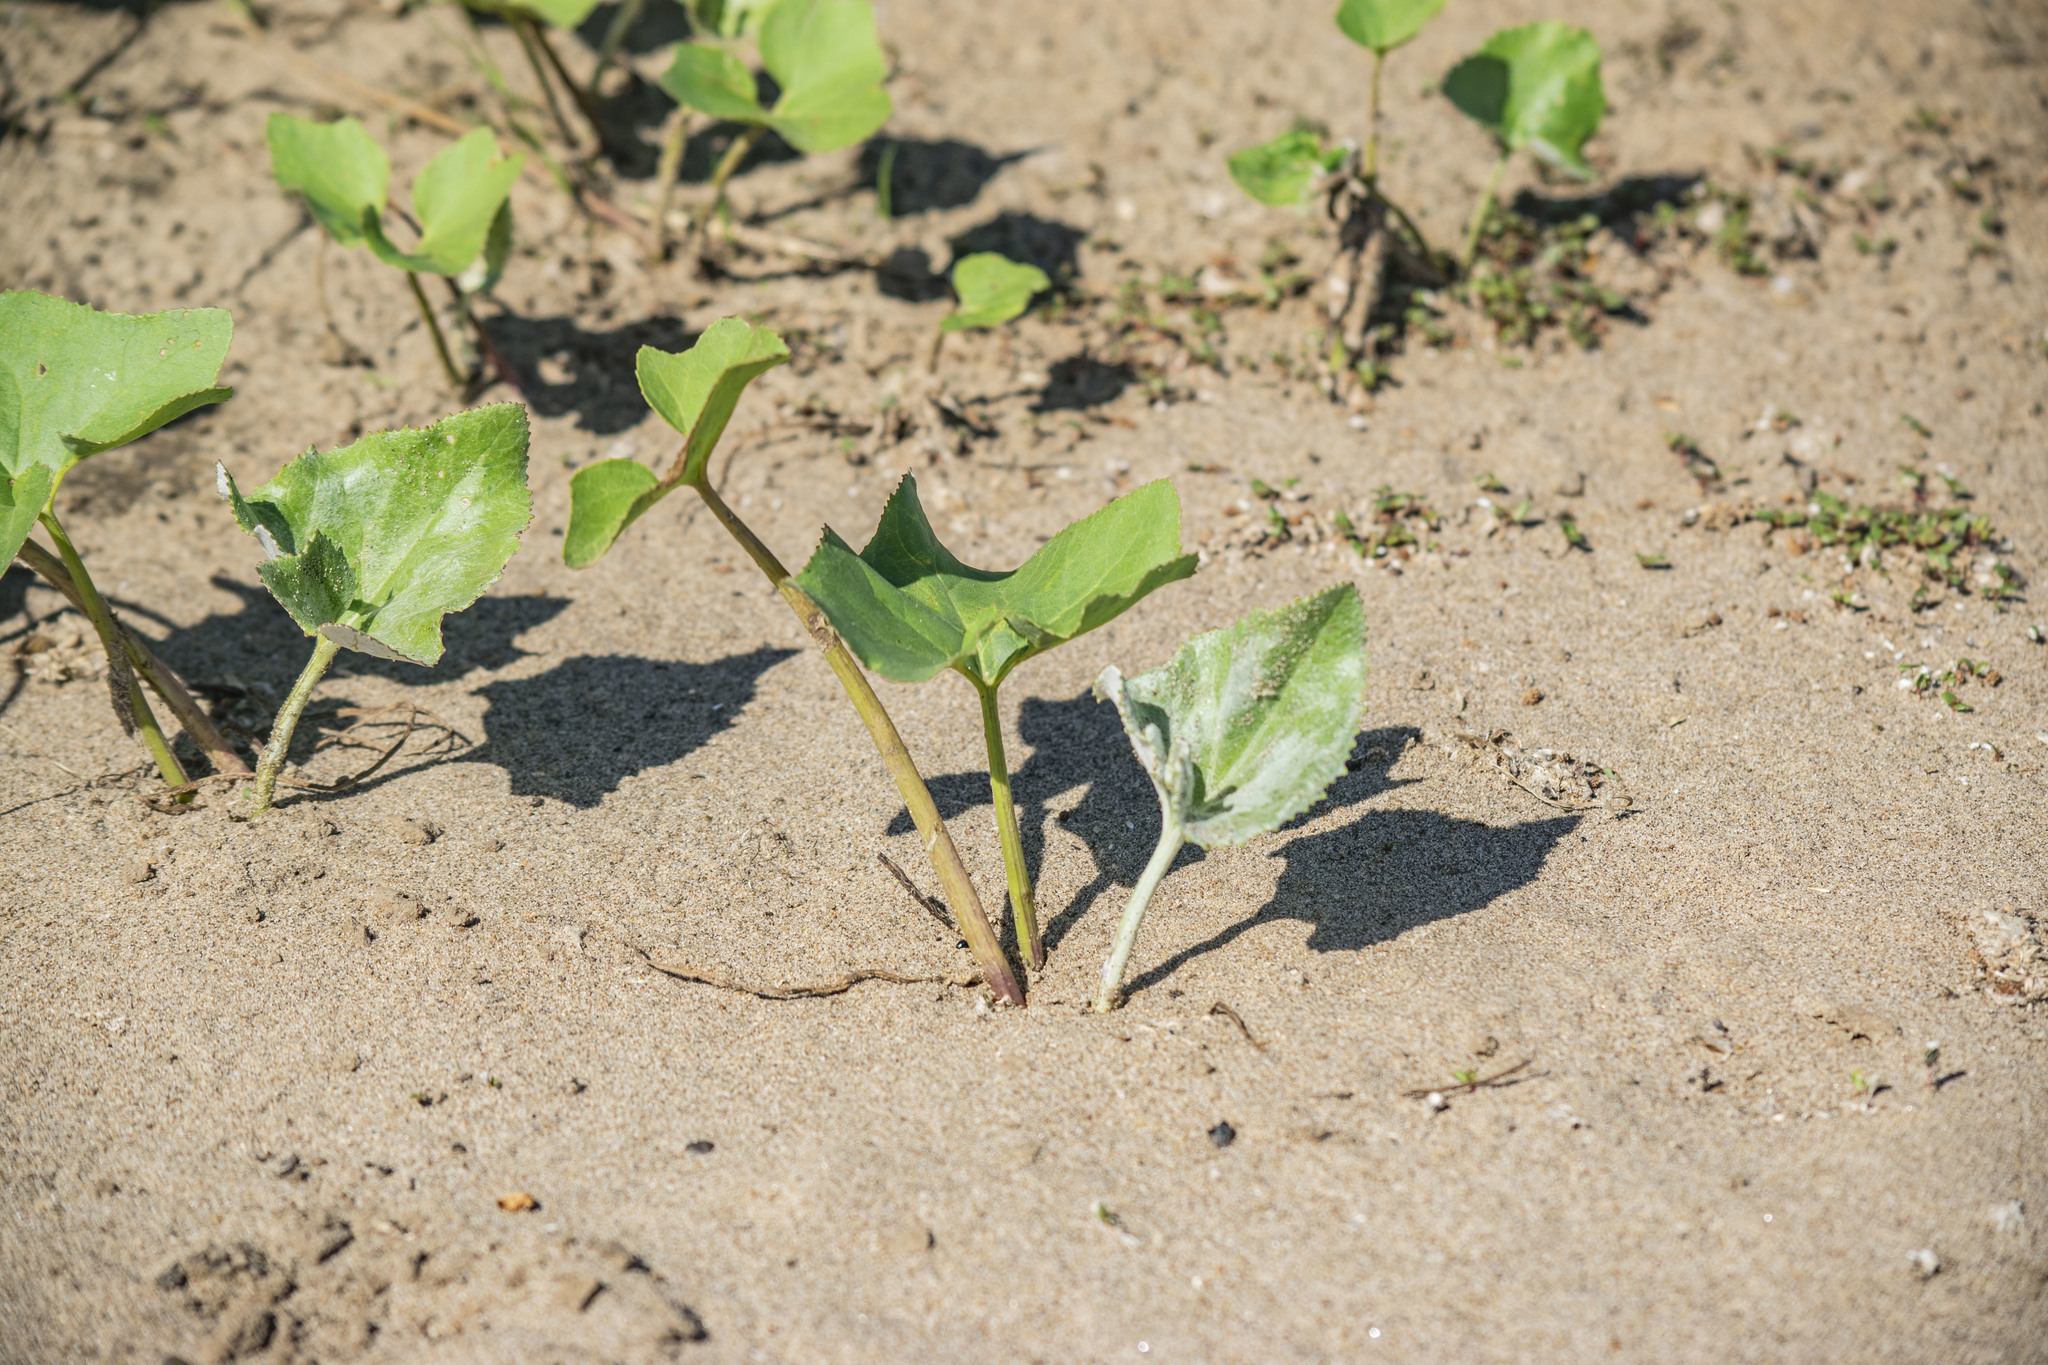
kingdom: Plantae
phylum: Tracheophyta
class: Magnoliopsida
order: Asterales
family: Asteraceae
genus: Petasites
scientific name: Petasites spurius
